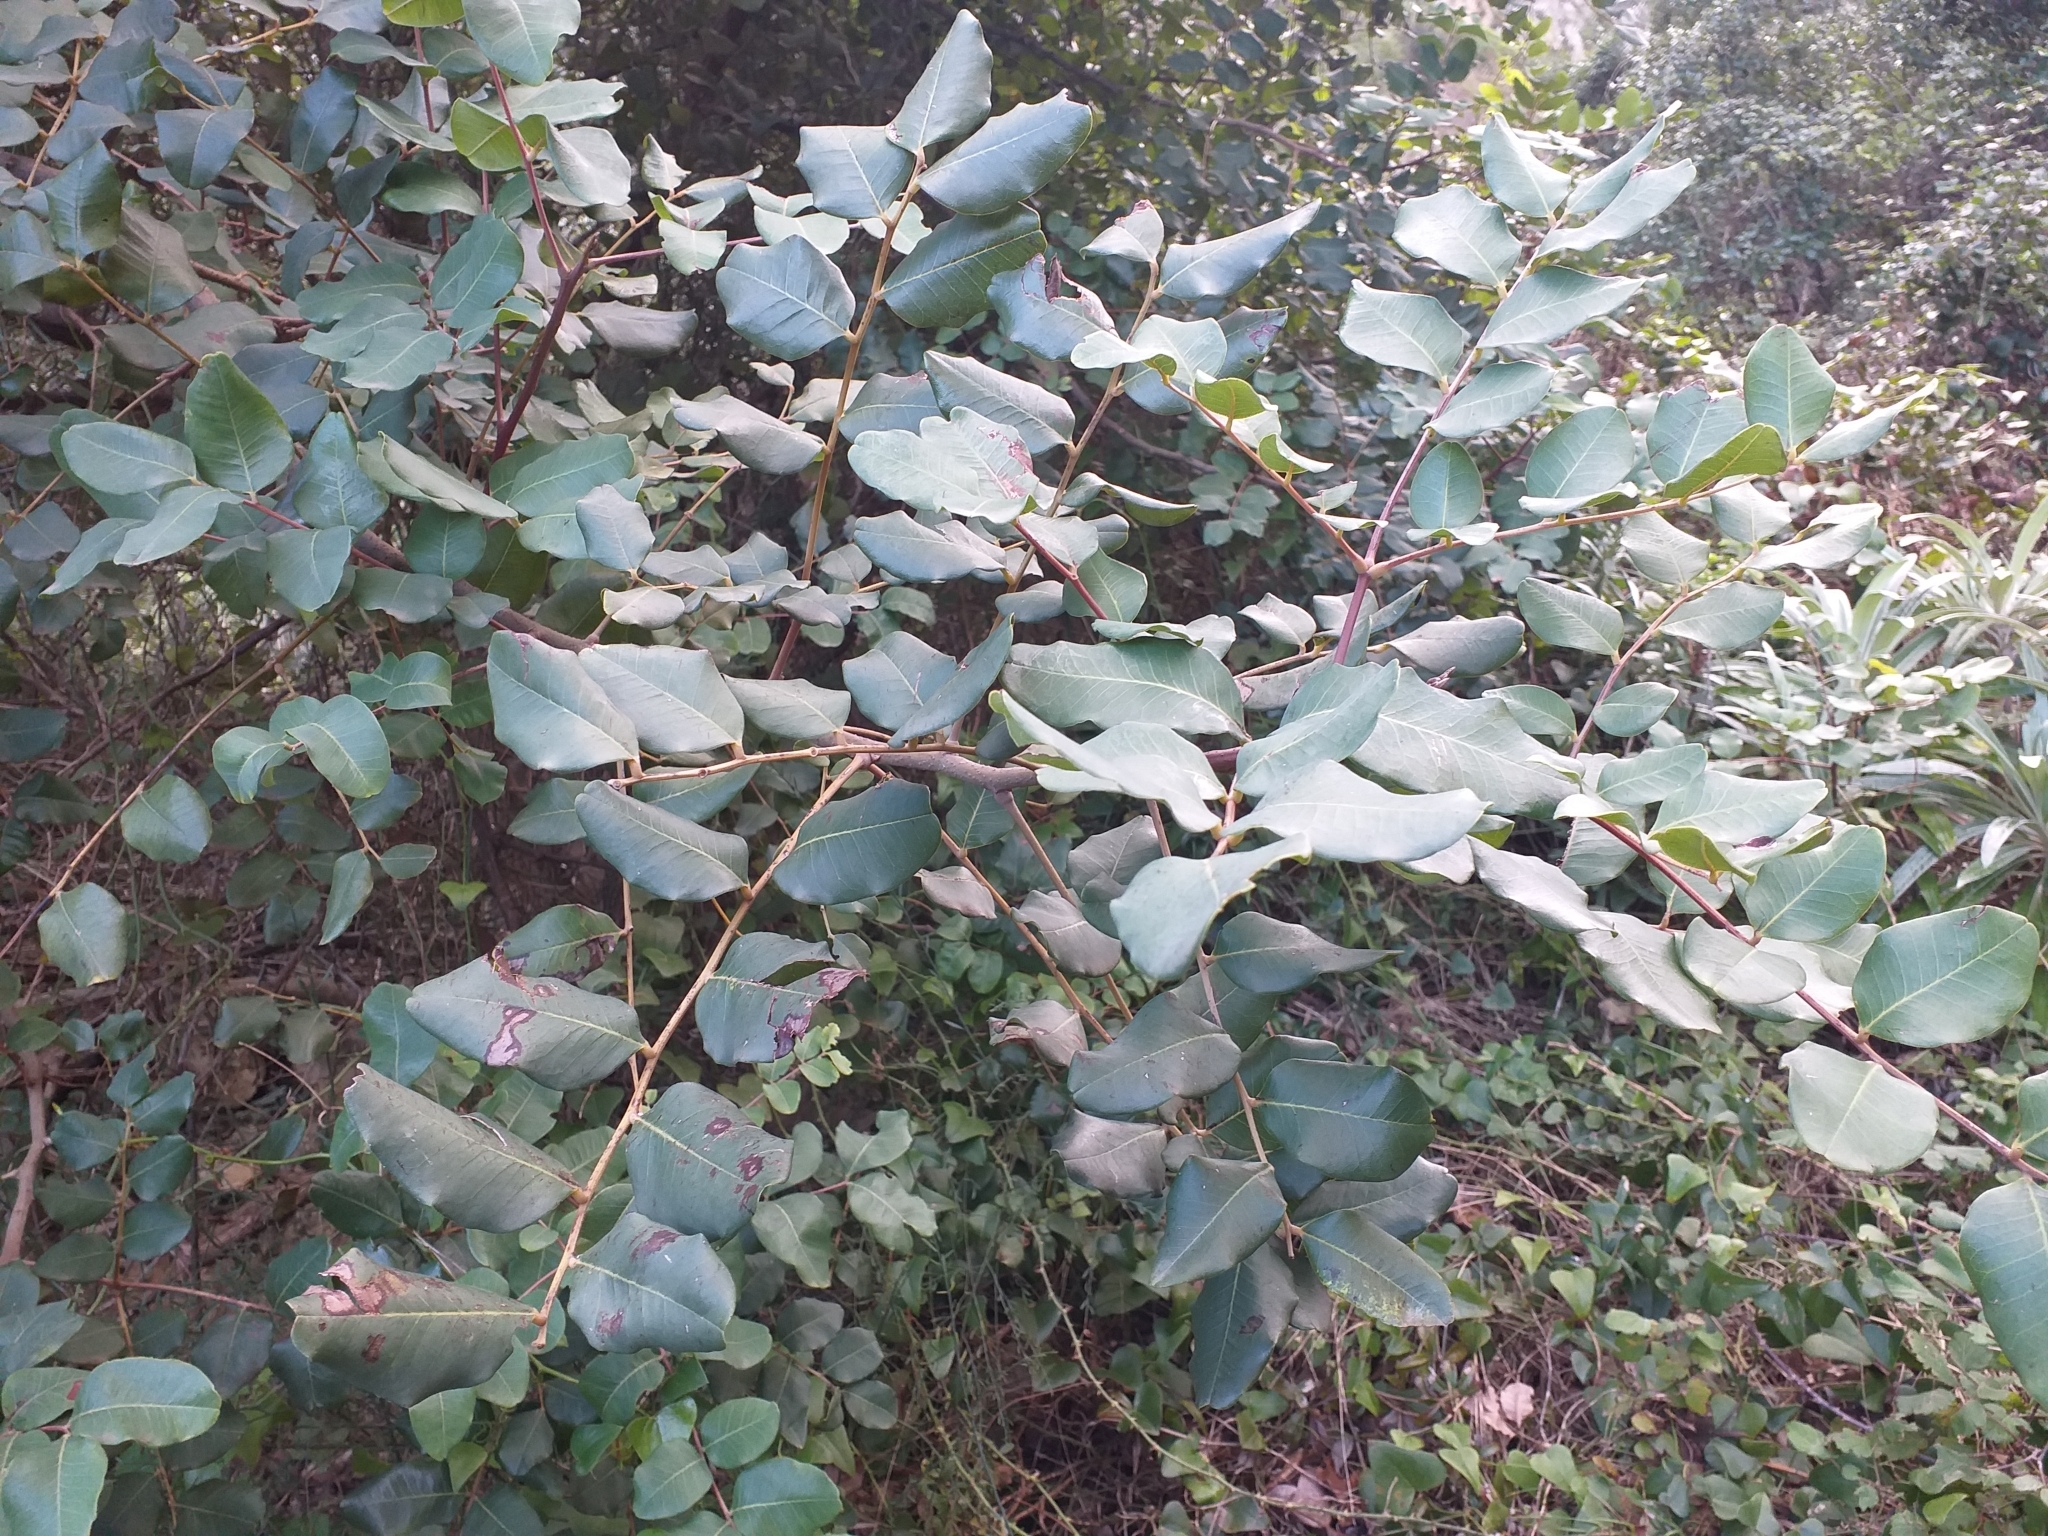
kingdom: Plantae
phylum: Tracheophyta
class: Magnoliopsida
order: Fabales
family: Fabaceae
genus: Ceratonia
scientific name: Ceratonia siliqua
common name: Carob
